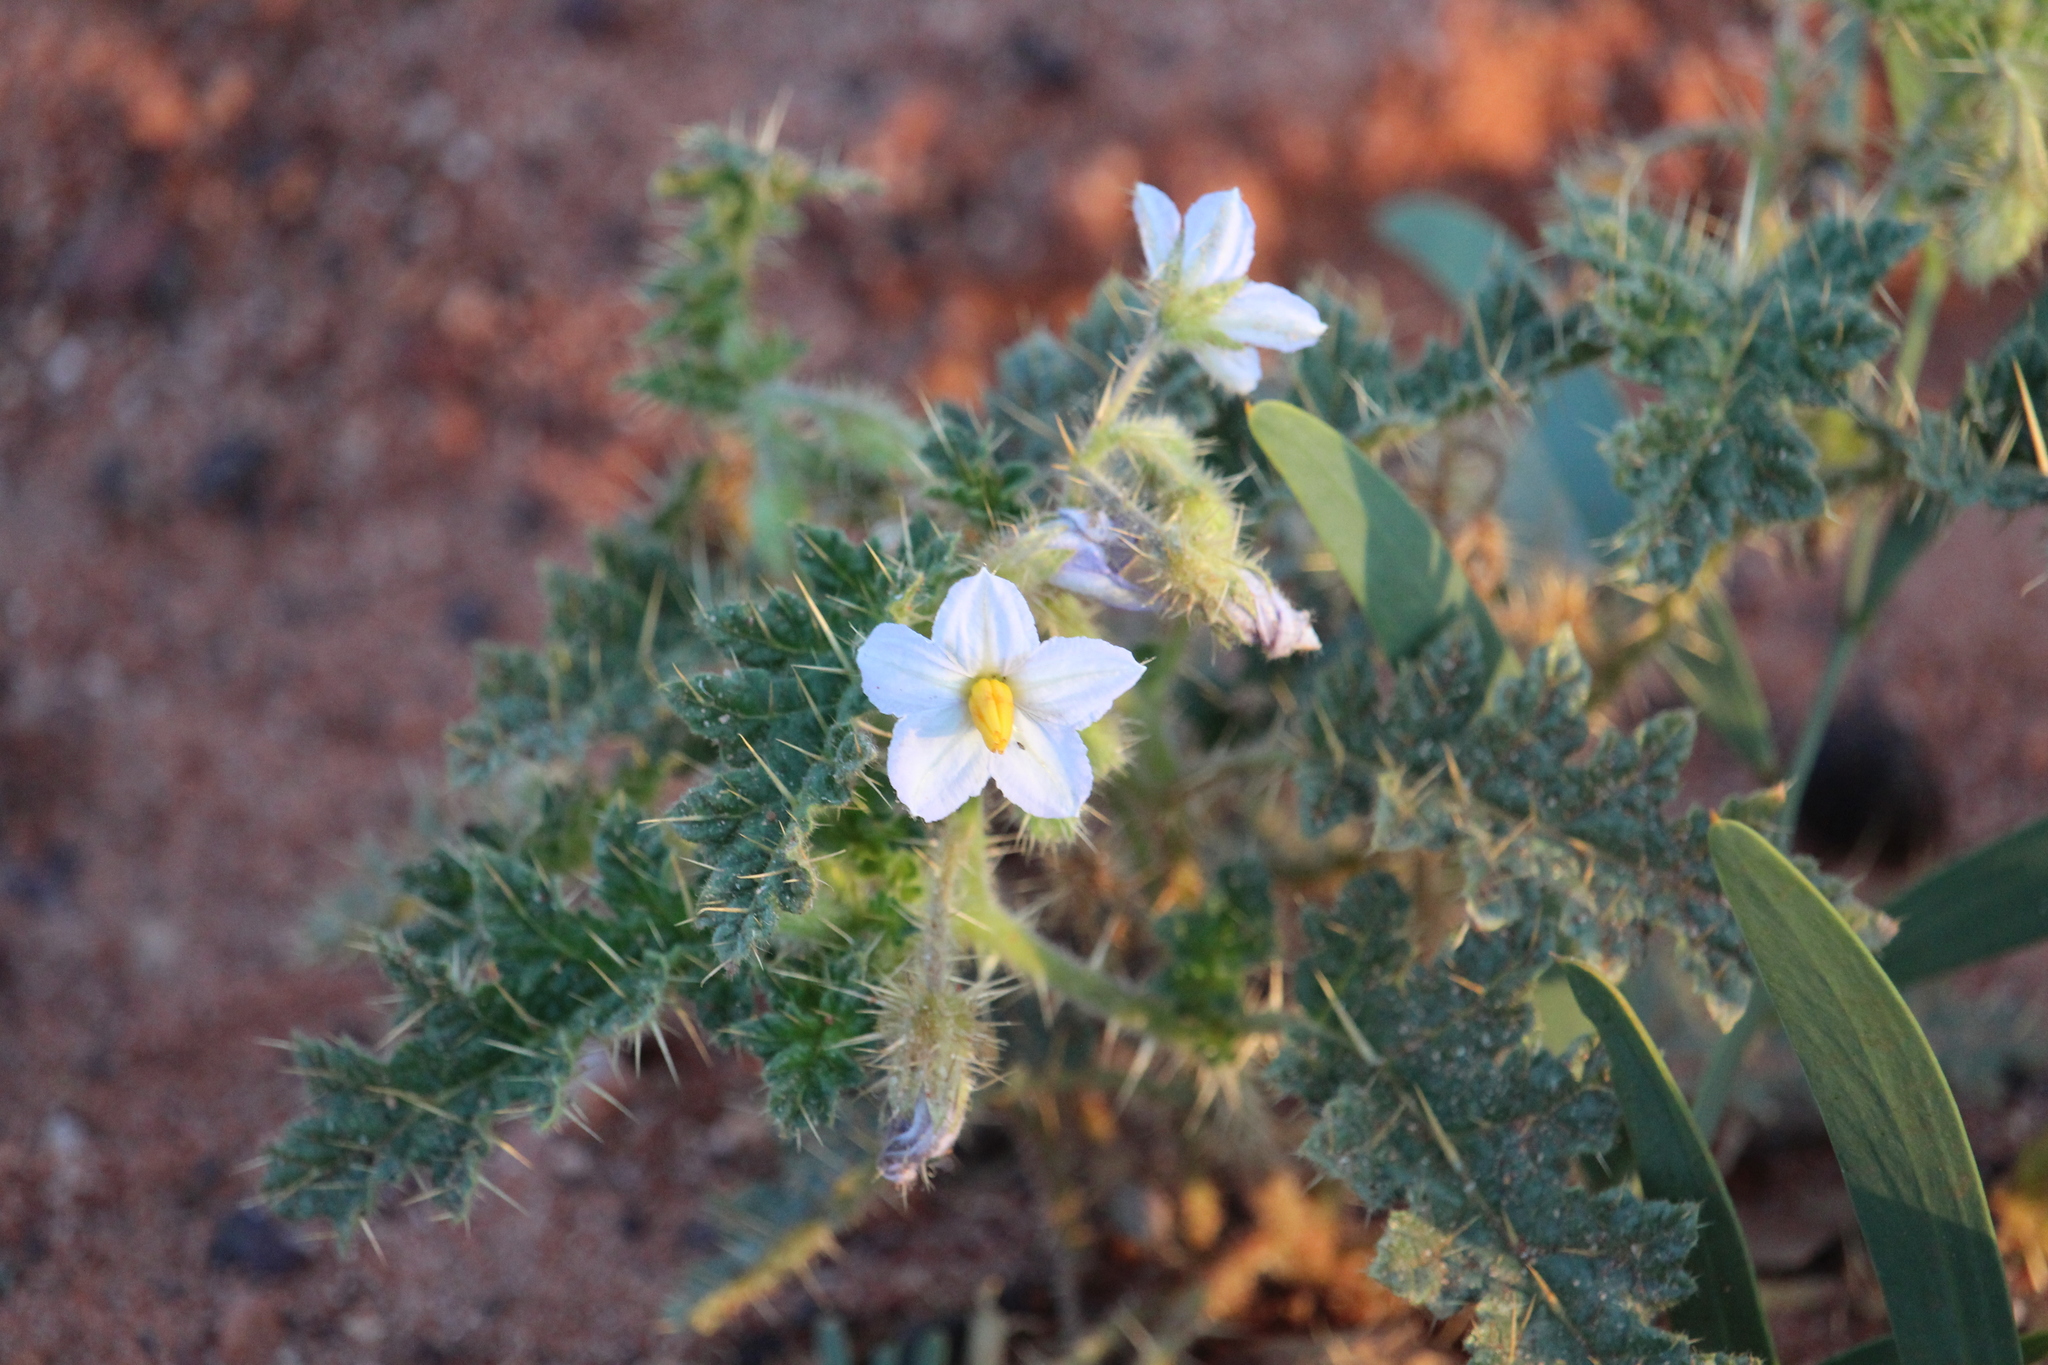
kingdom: Plantae
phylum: Tracheophyta
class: Magnoliopsida
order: Solanales
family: Solanaceae
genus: Solanum
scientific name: Solanum hoplopetalum
